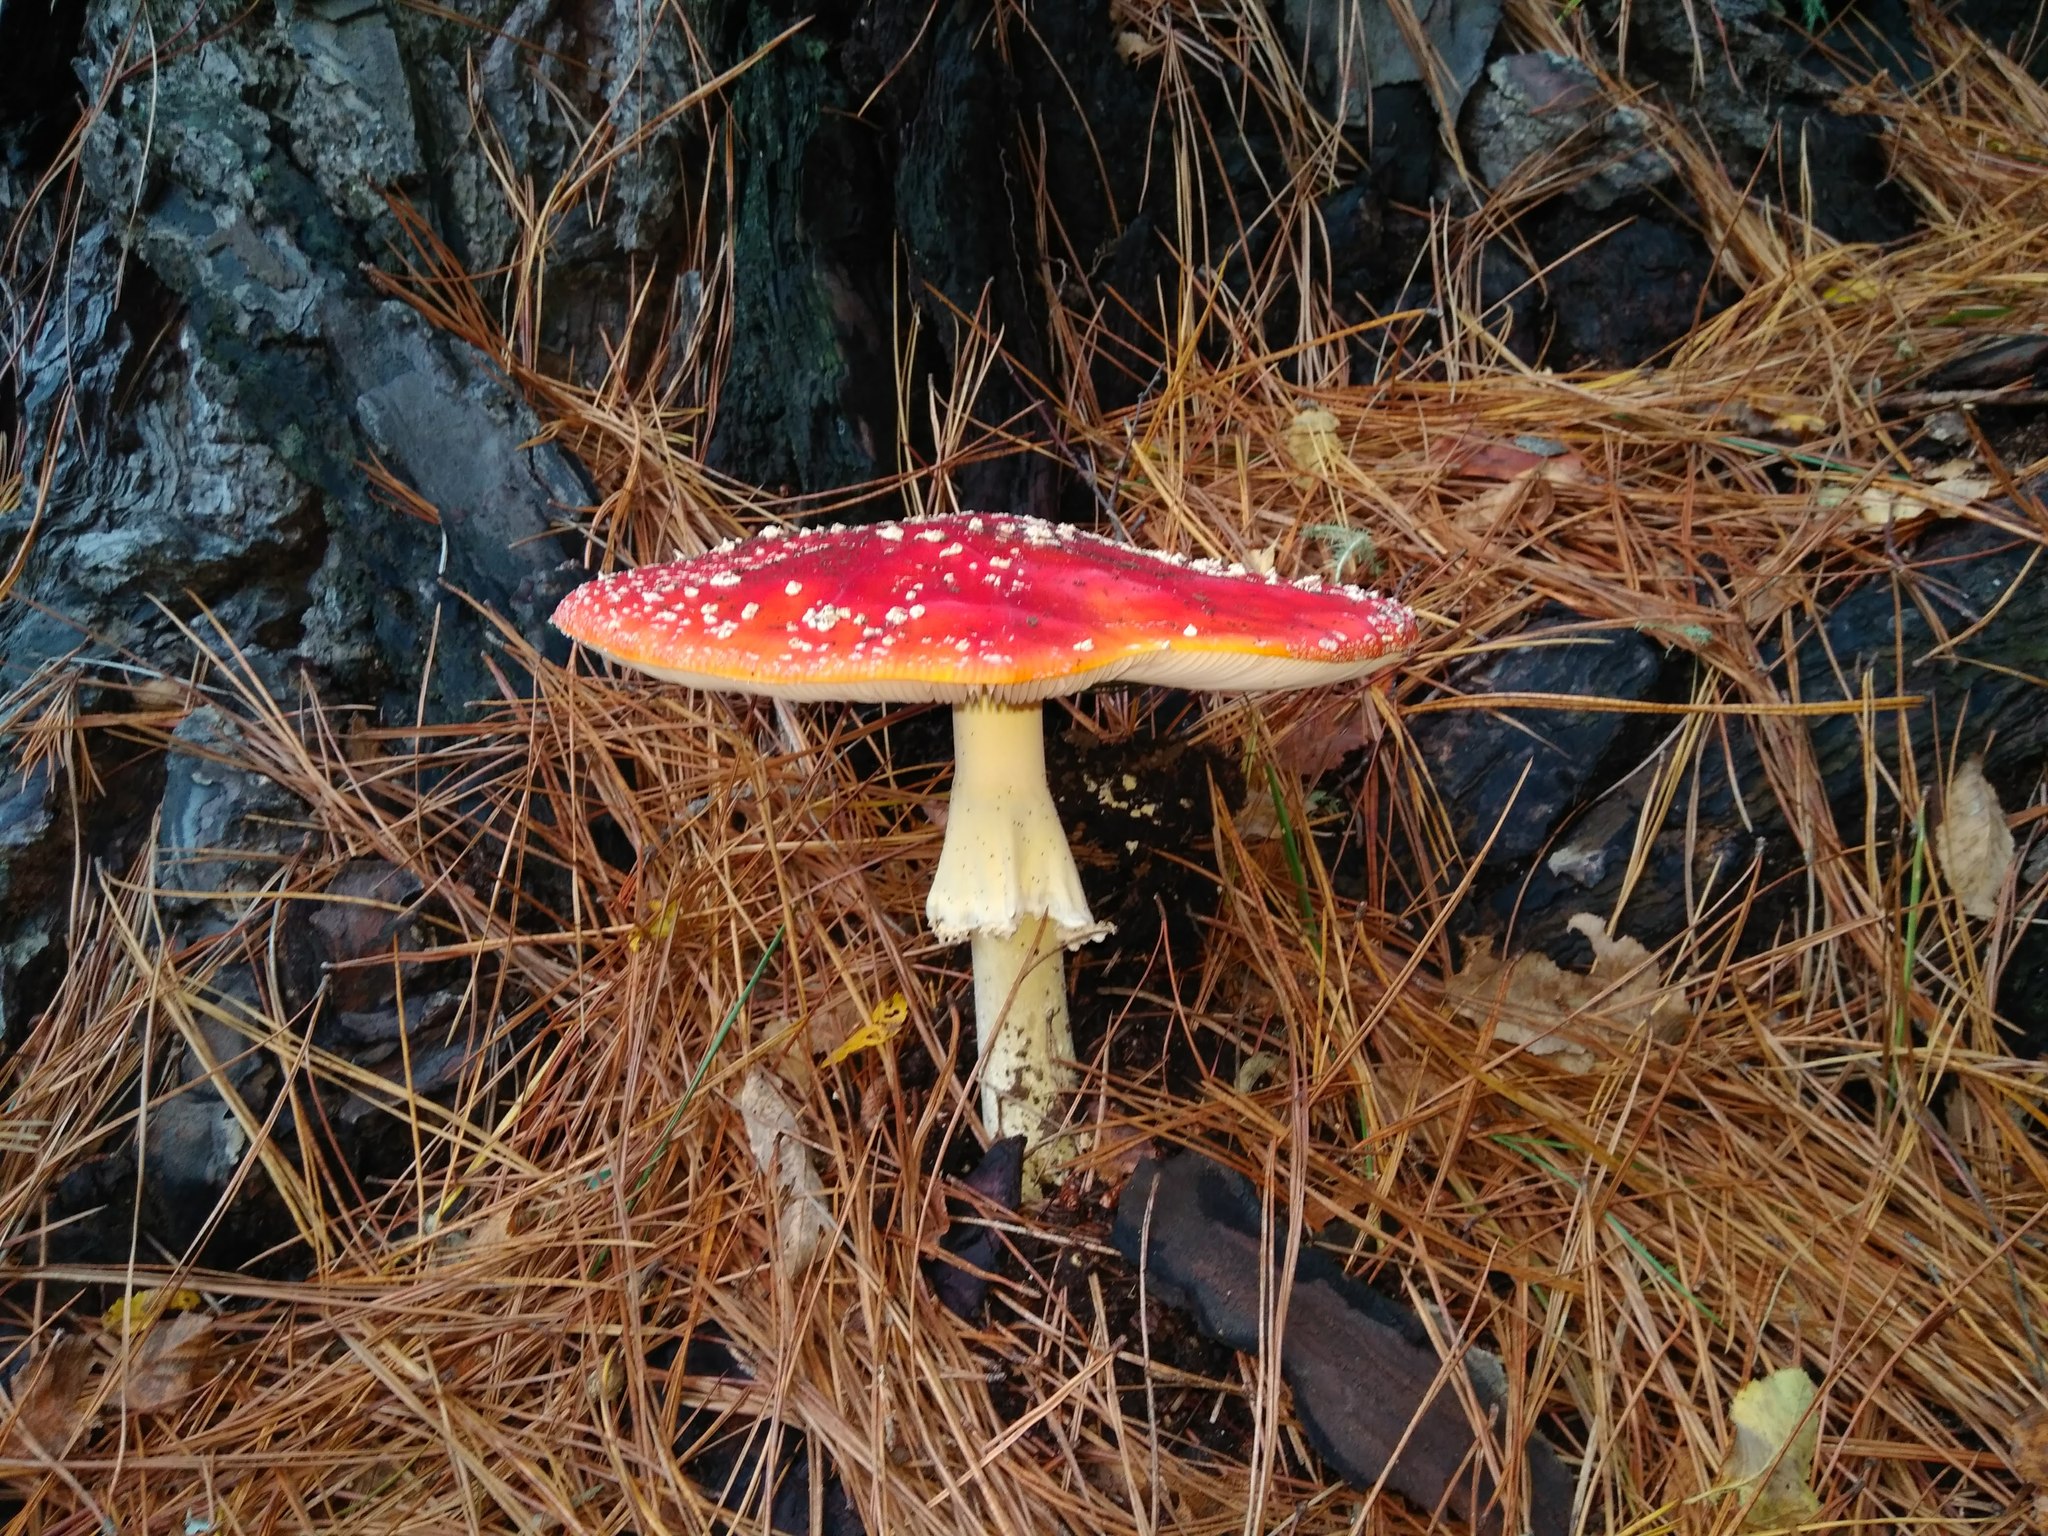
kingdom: Fungi
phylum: Basidiomycota
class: Agaricomycetes
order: Agaricales
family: Amanitaceae
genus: Amanita
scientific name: Amanita muscaria
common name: Fly agaric
